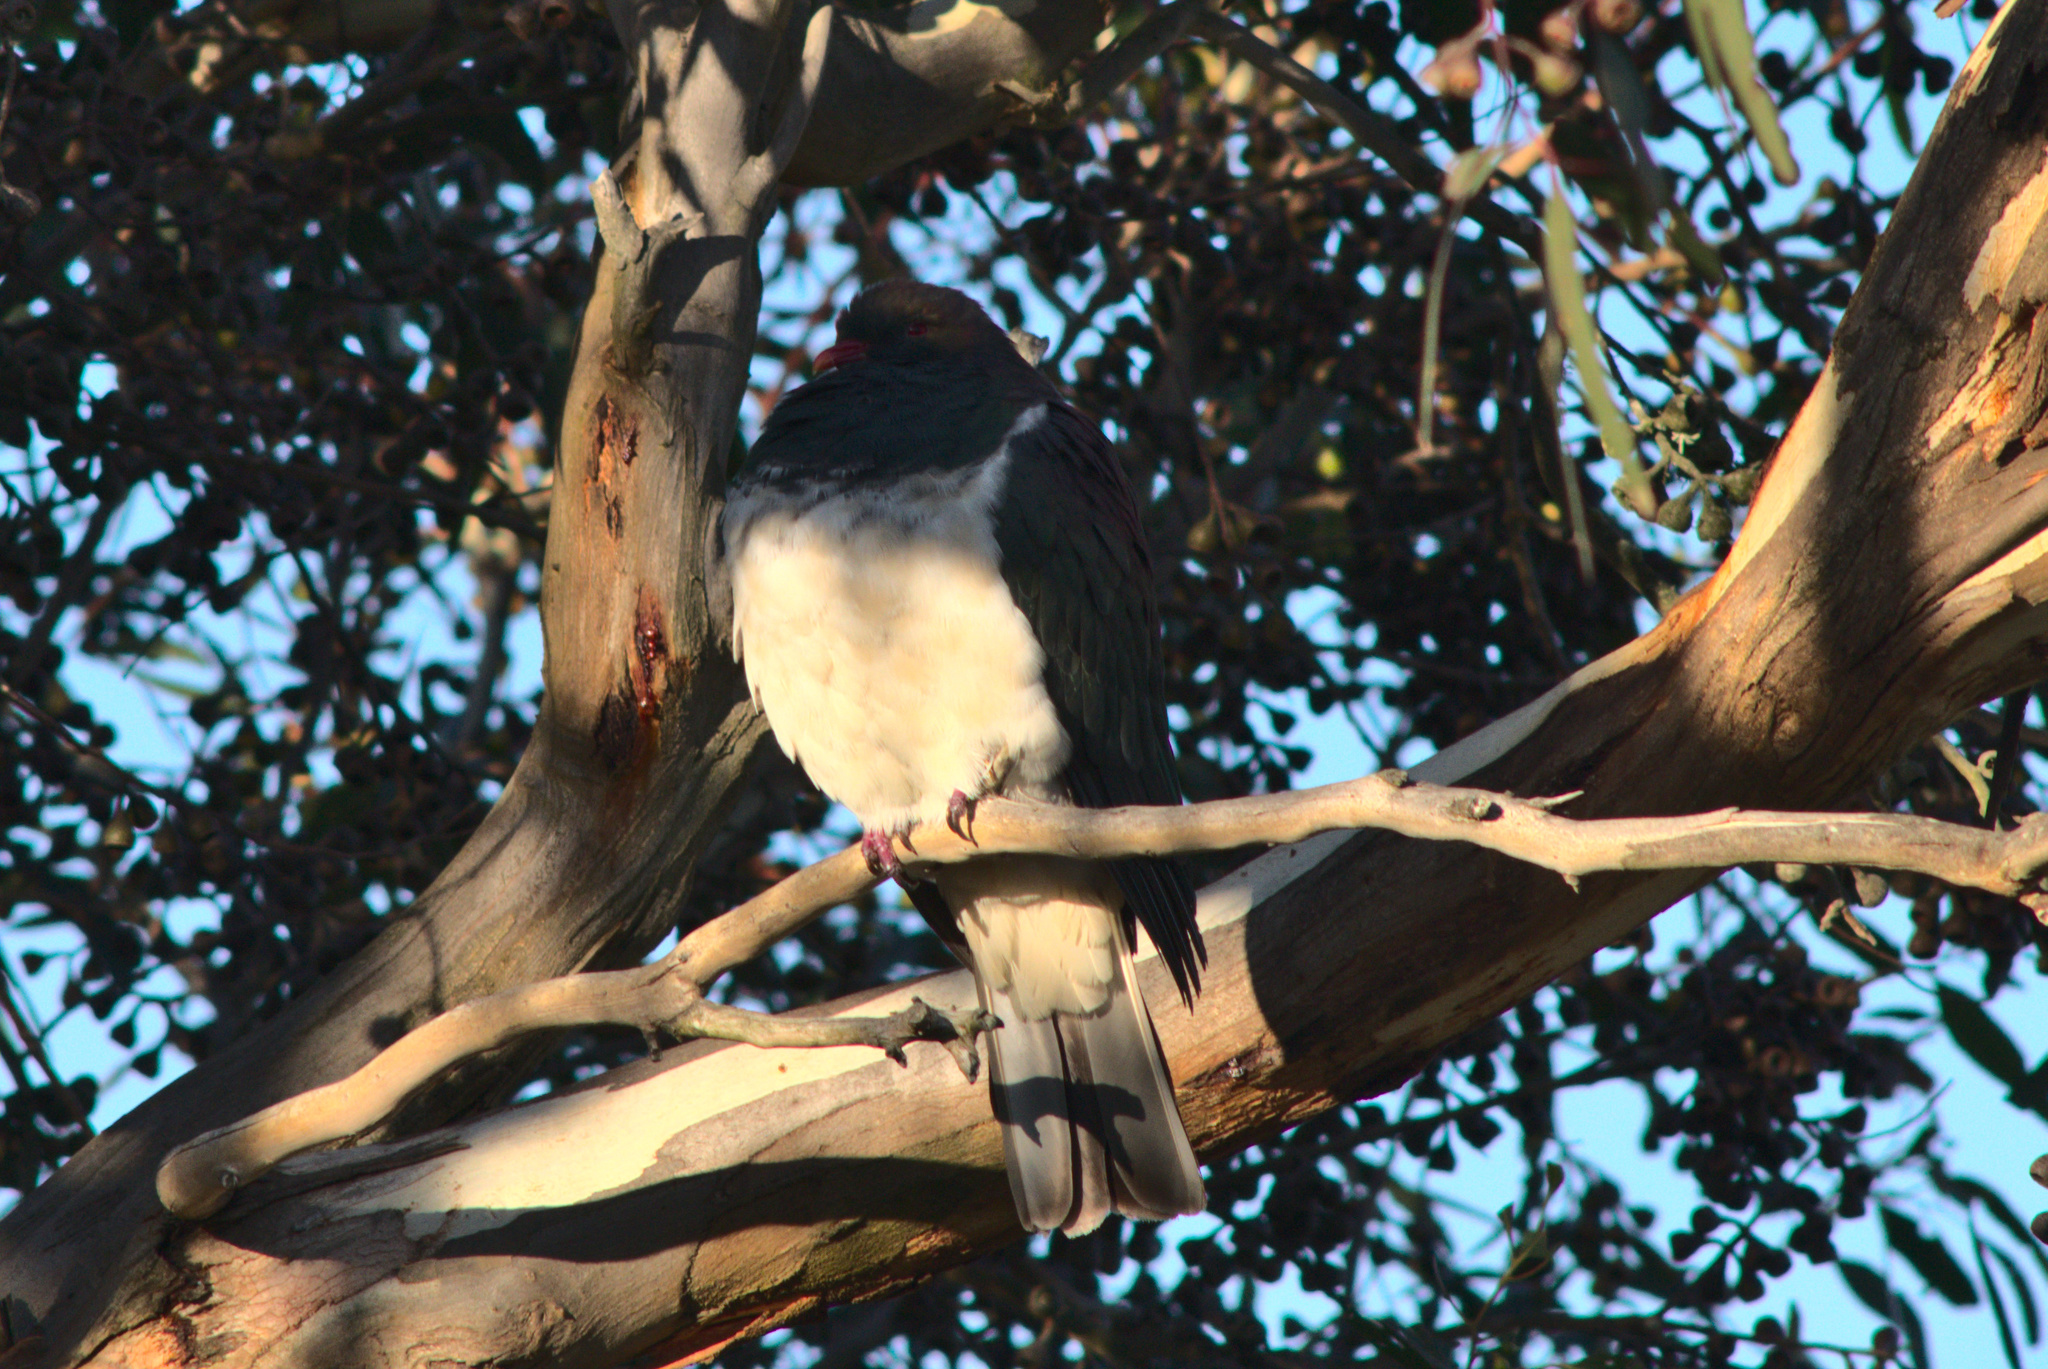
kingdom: Animalia
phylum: Chordata
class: Aves
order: Columbiformes
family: Columbidae
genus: Hemiphaga
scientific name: Hemiphaga novaeseelandiae
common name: New zealand pigeon
